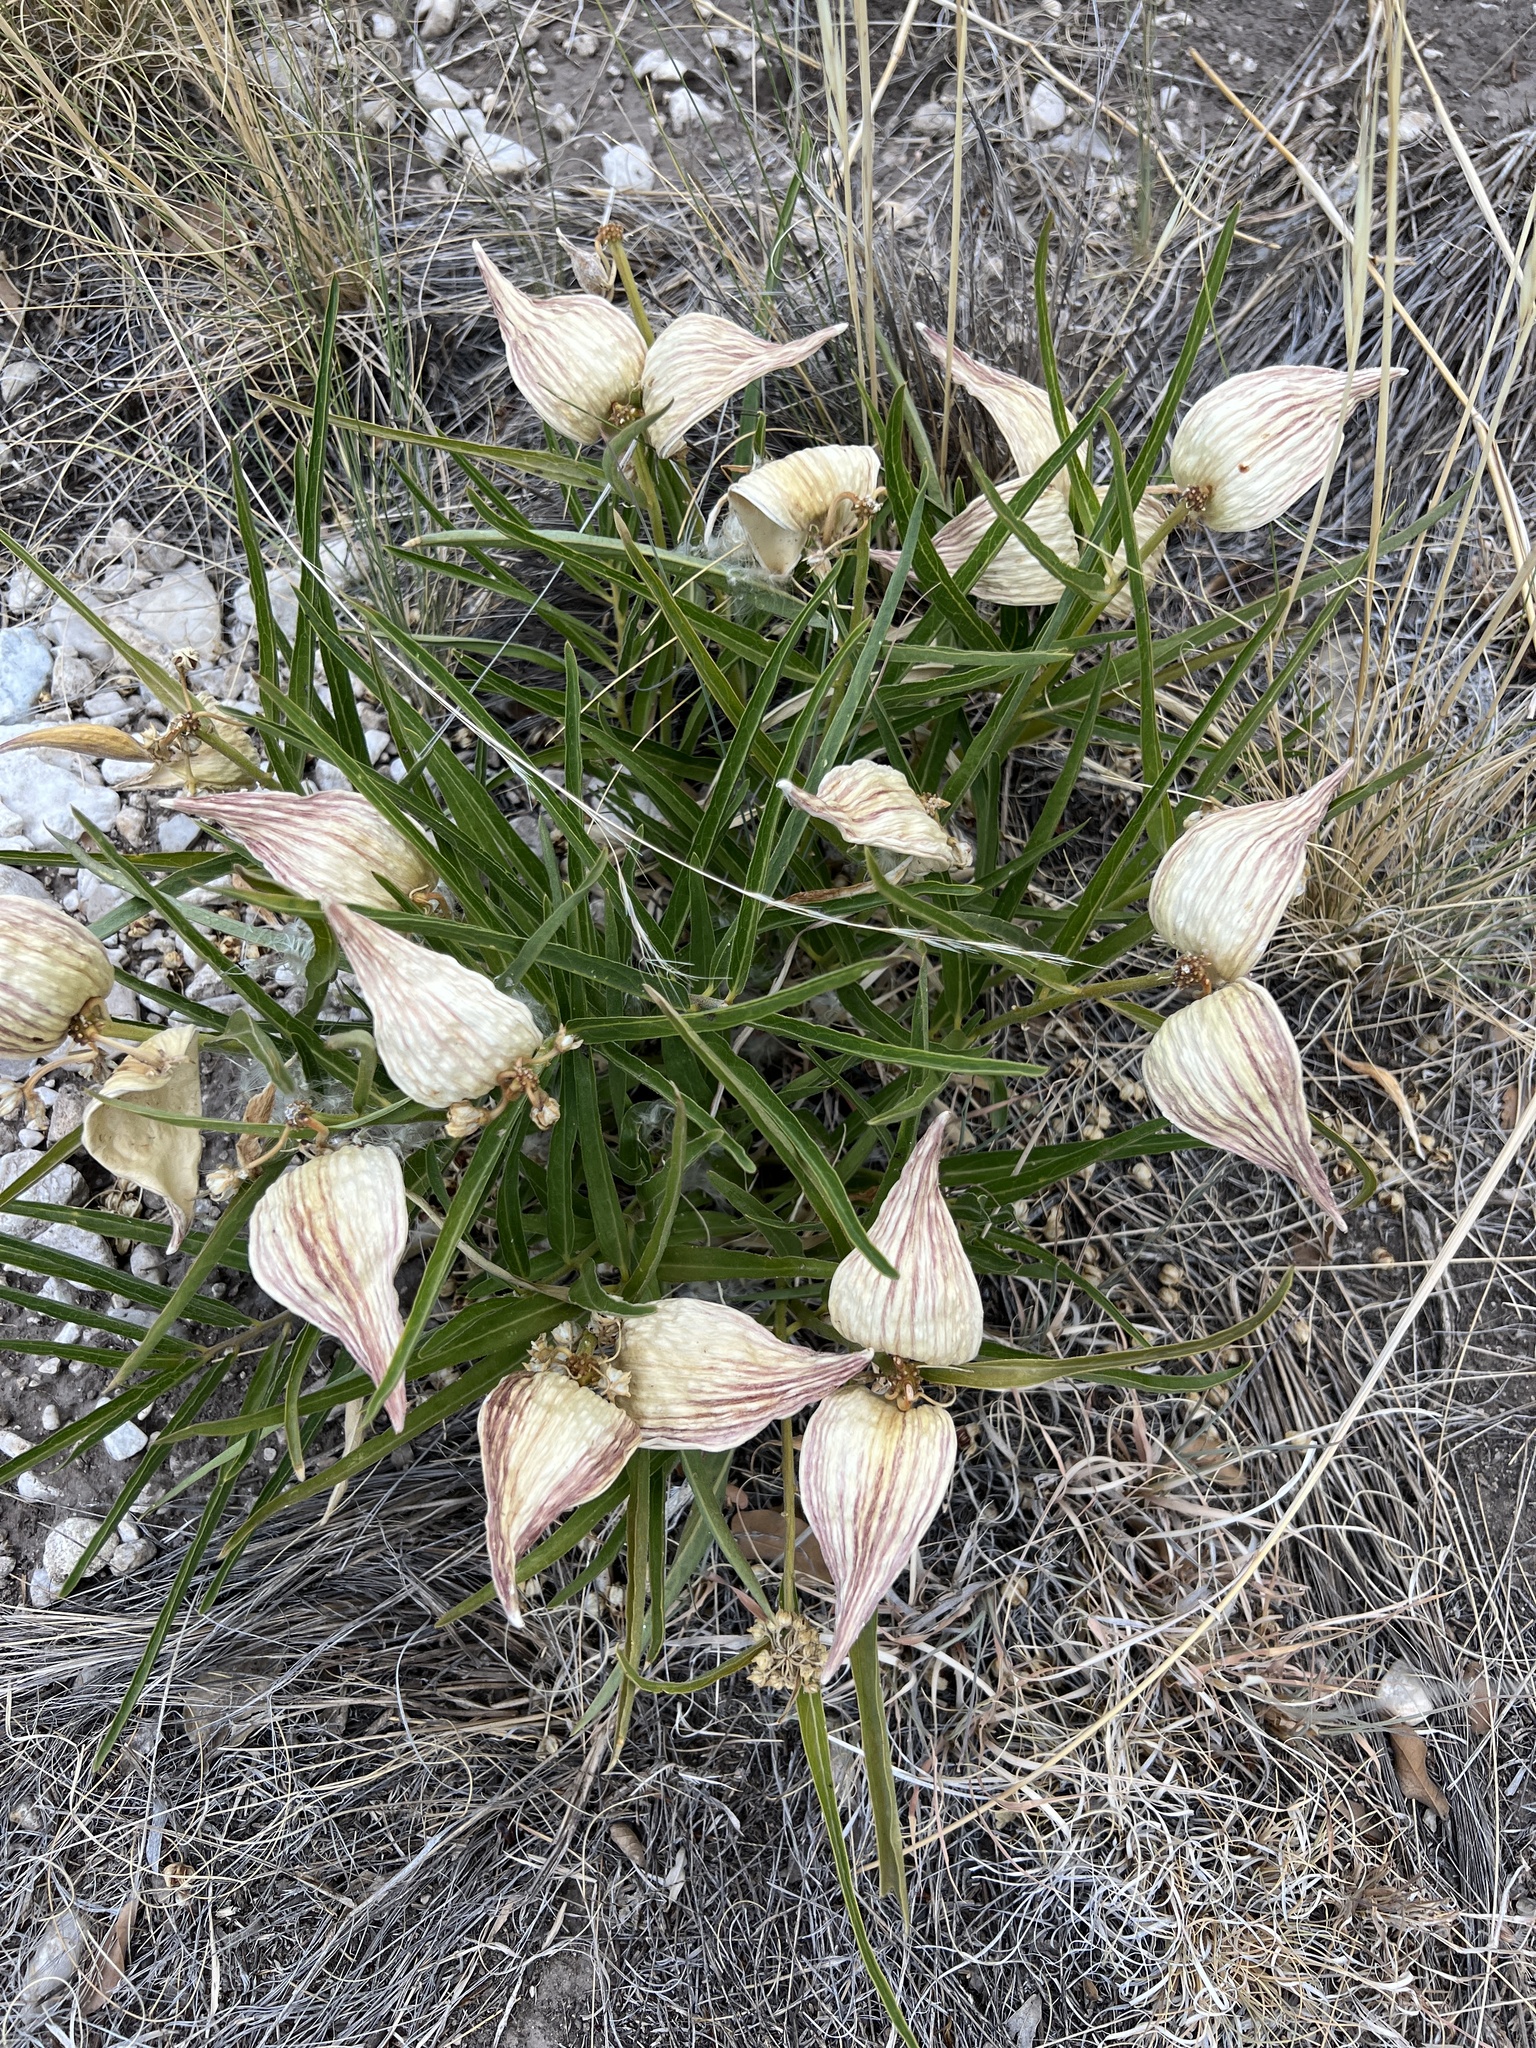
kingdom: Plantae
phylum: Tracheophyta
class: Magnoliopsida
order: Gentianales
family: Apocynaceae
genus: Asclepias
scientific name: Asclepias asperula
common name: Antelope horns
